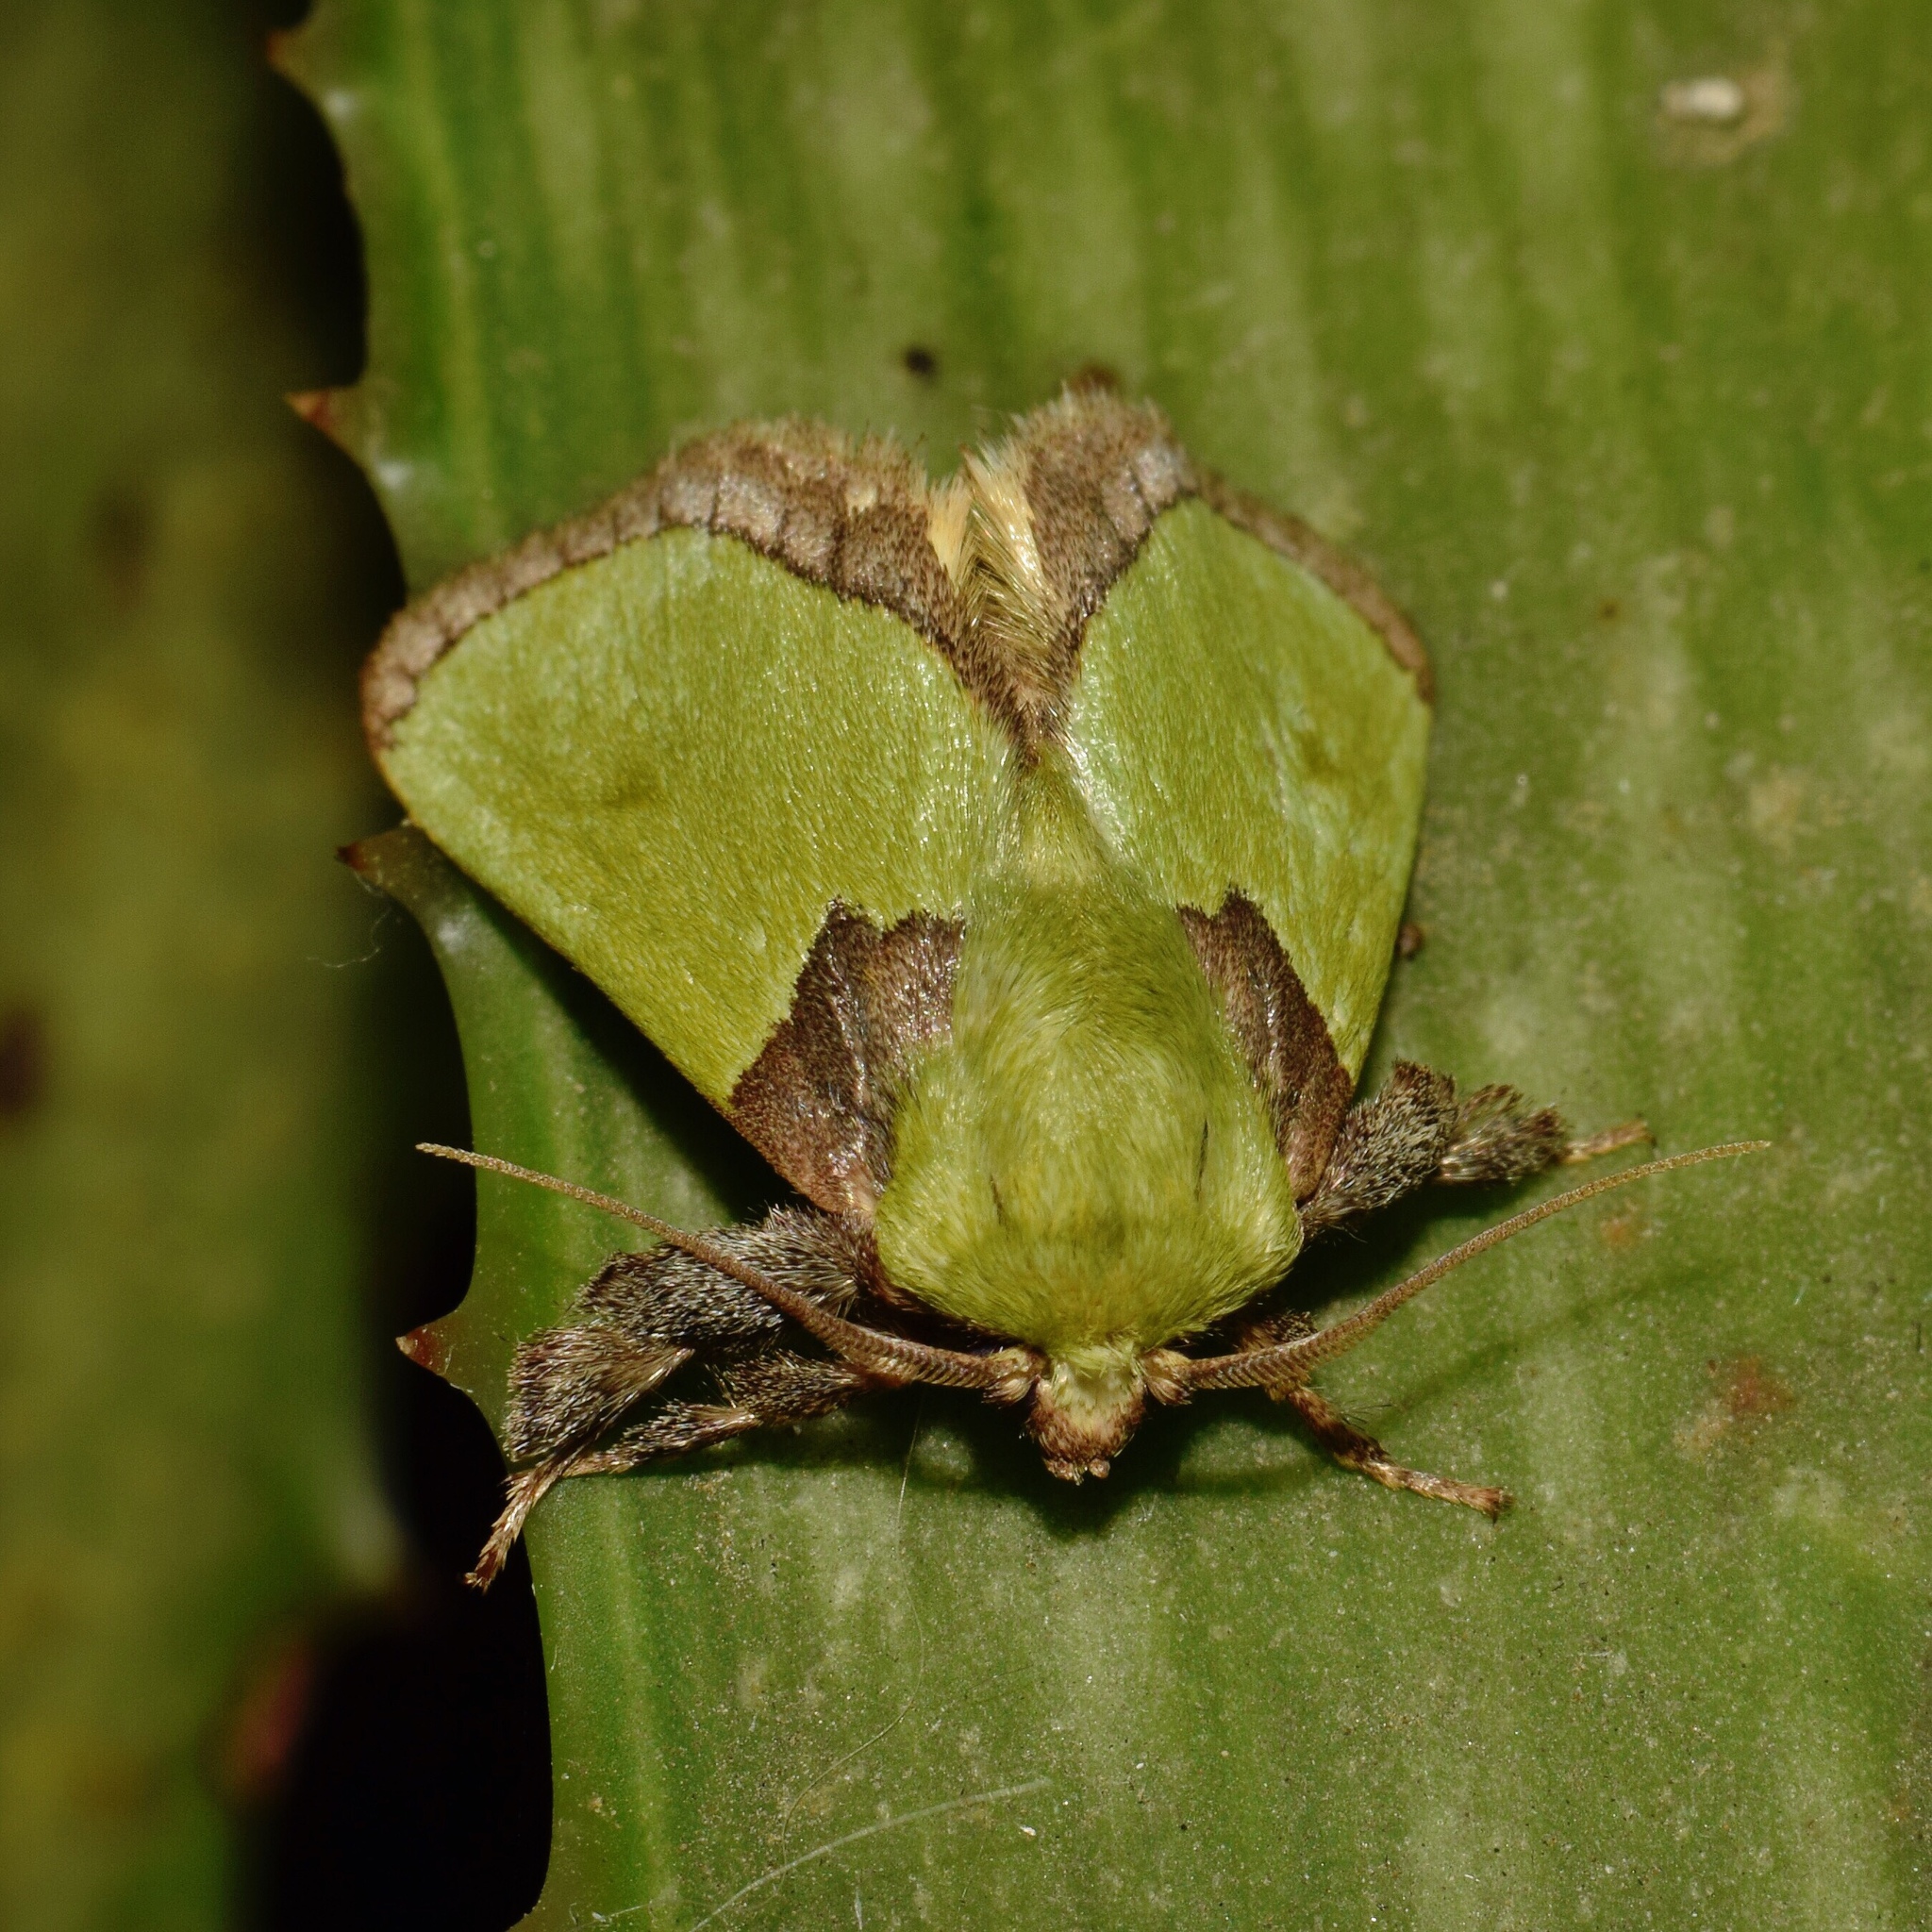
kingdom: Animalia
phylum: Arthropoda
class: Insecta
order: Lepidoptera
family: Limacodidae
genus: Parasa
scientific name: Parasa vivida
